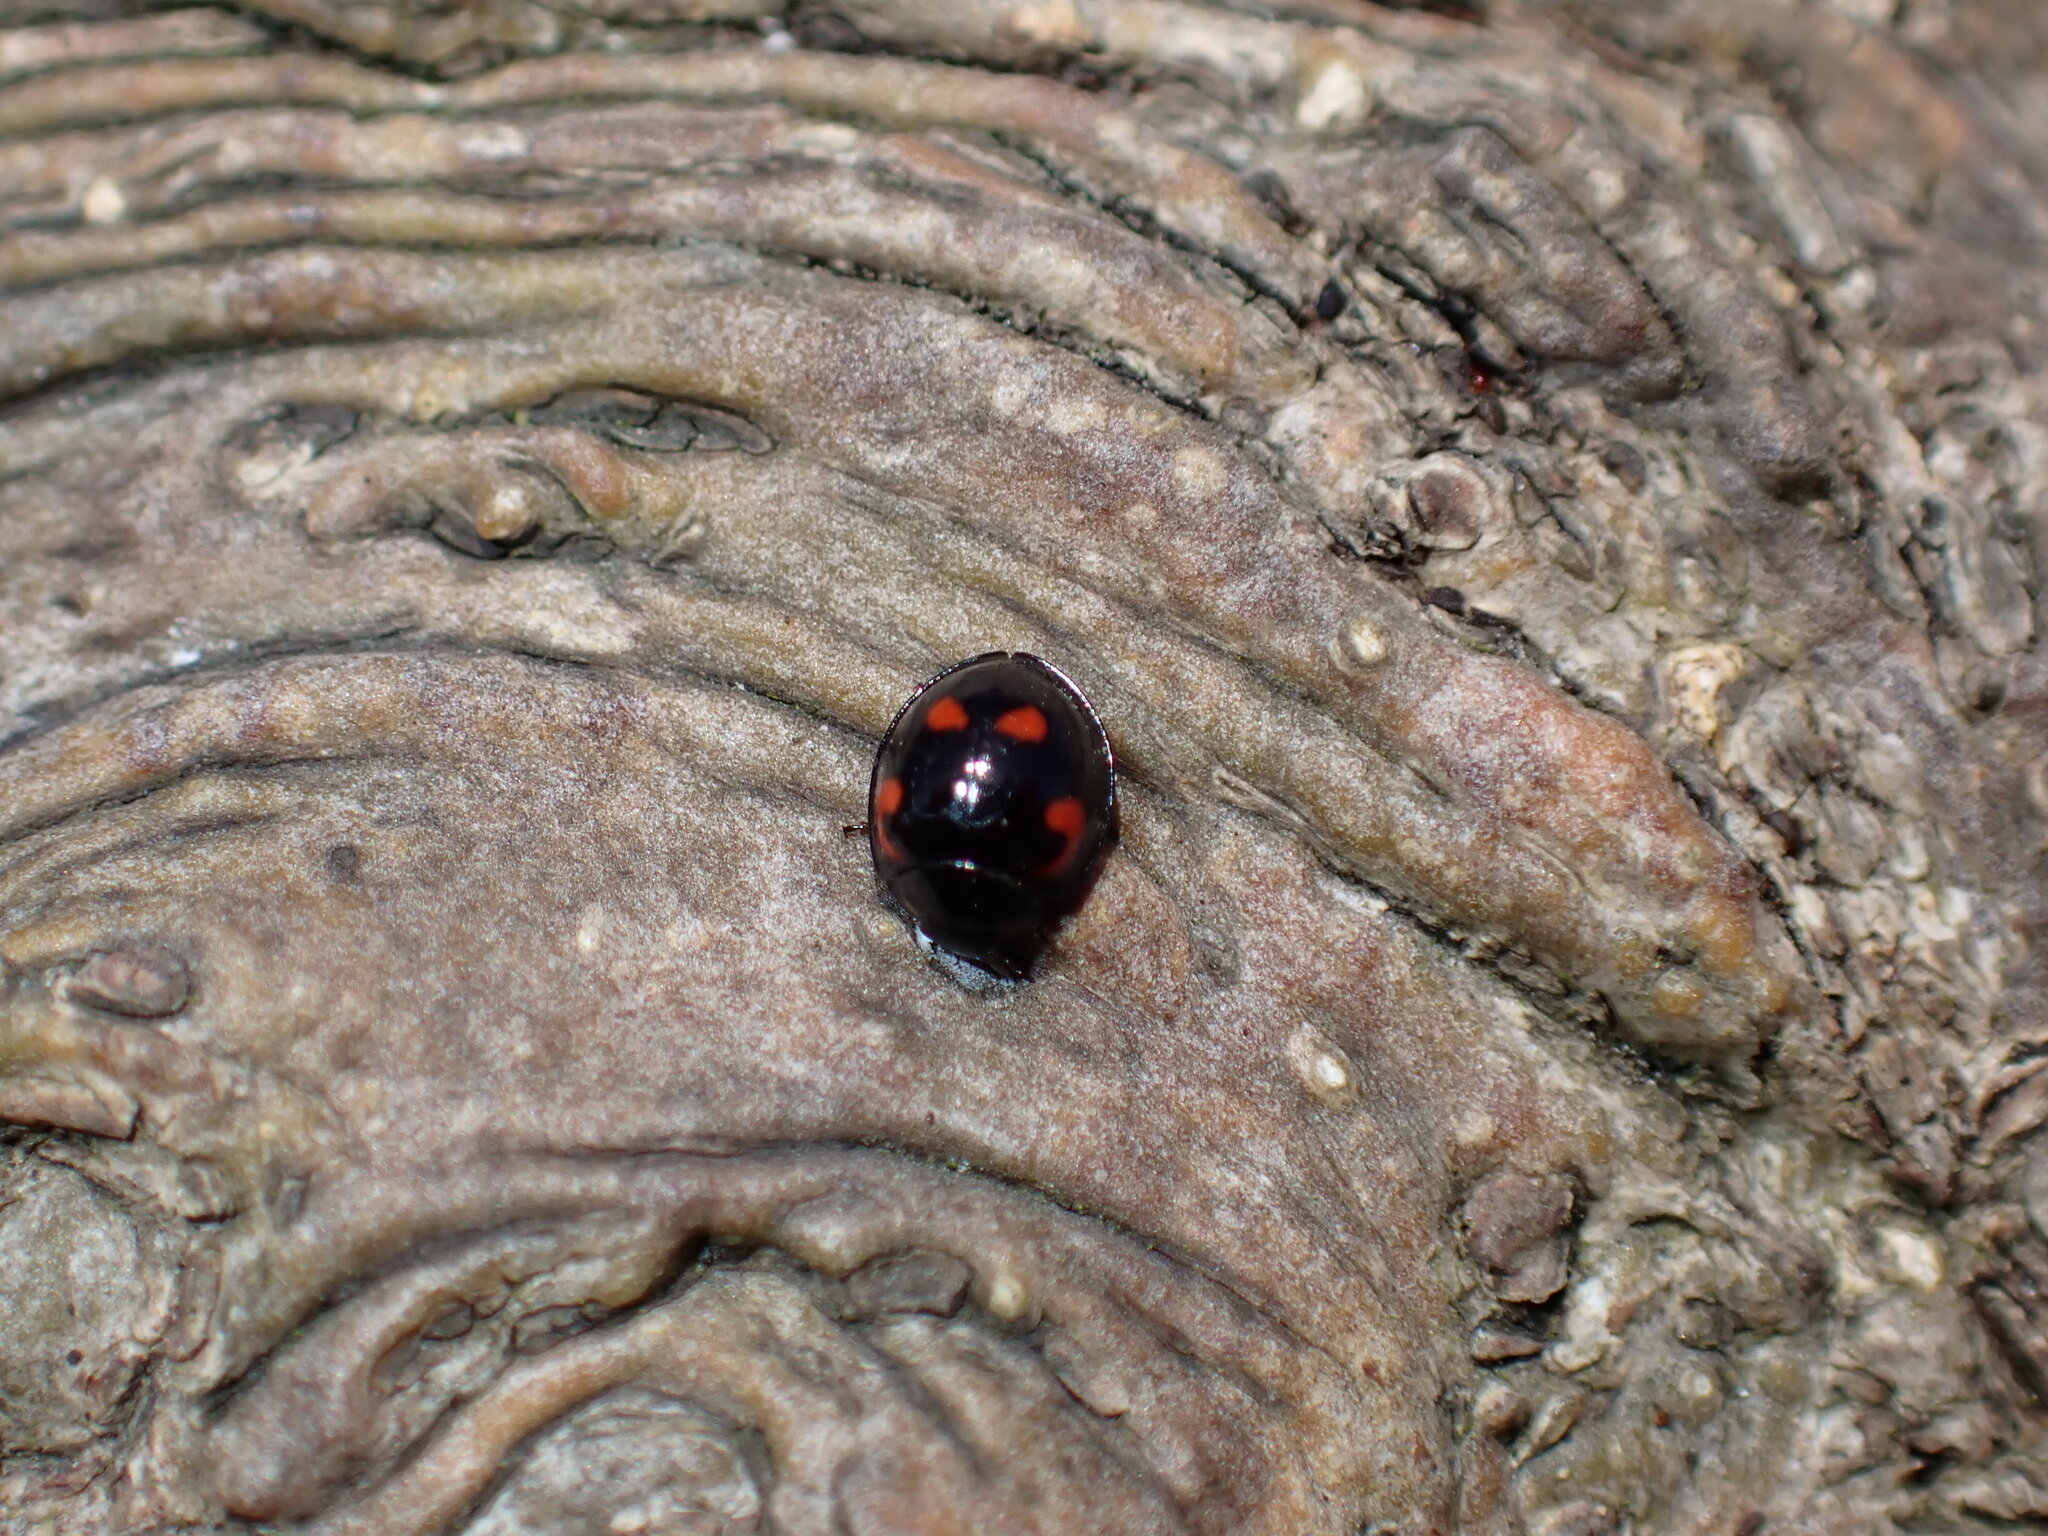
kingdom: Animalia
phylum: Arthropoda
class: Insecta
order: Coleoptera
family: Coccinellidae
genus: Brumus
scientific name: Brumus quadripustulatus
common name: Ladybird beetle
